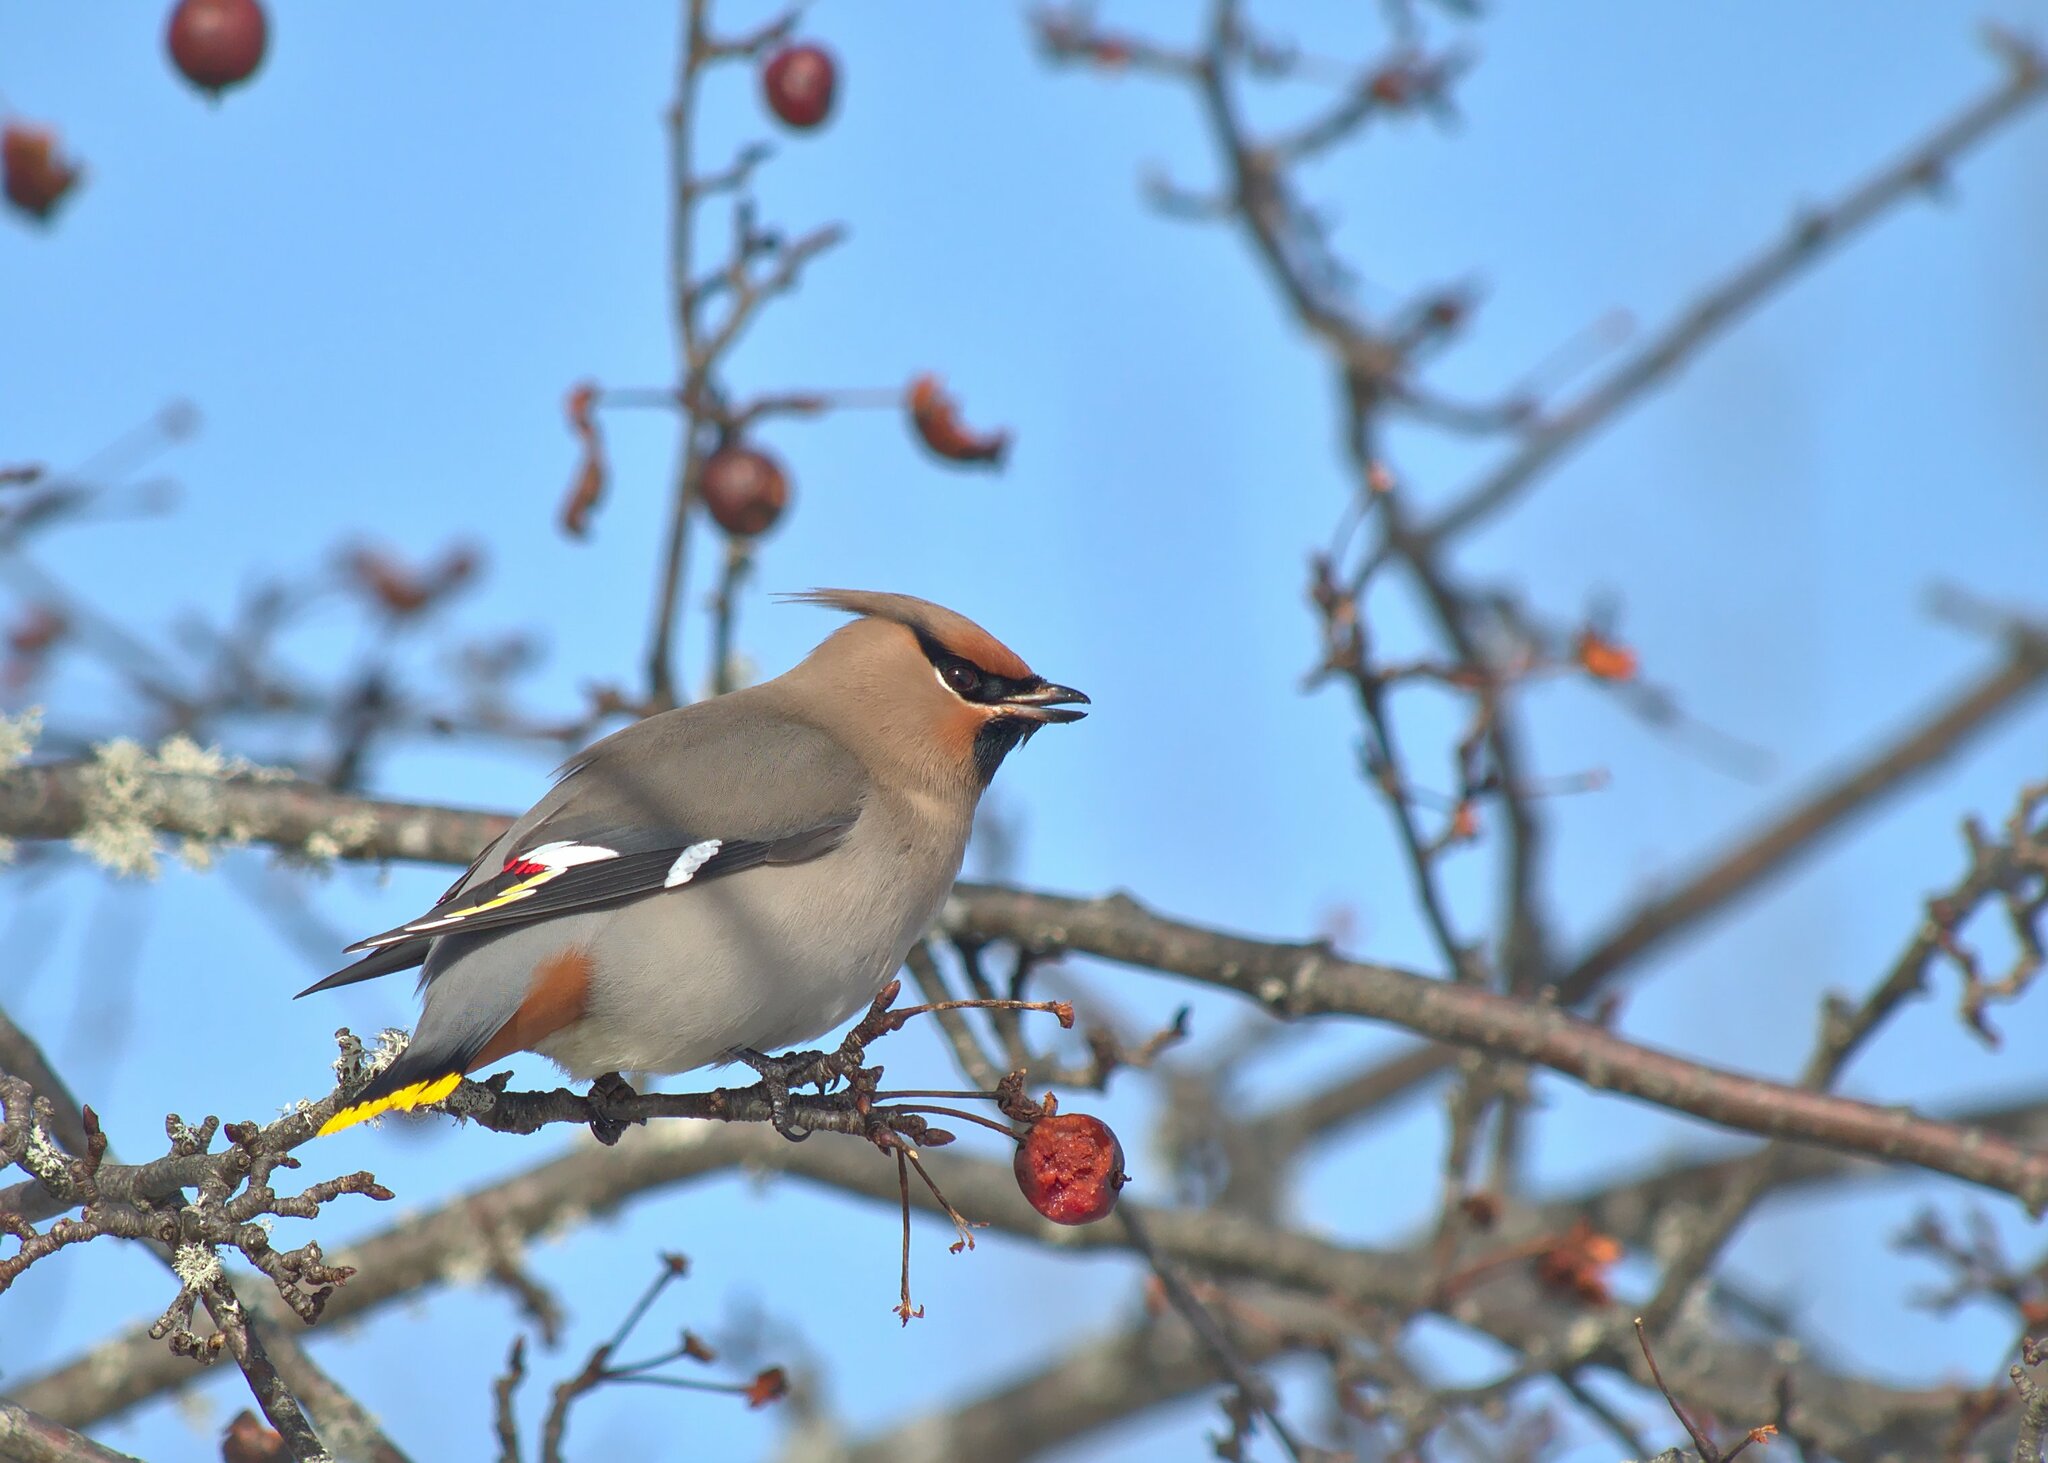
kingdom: Animalia
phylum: Chordata
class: Aves
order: Passeriformes
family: Bombycillidae
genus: Bombycilla
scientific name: Bombycilla garrulus
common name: Bohemian waxwing
